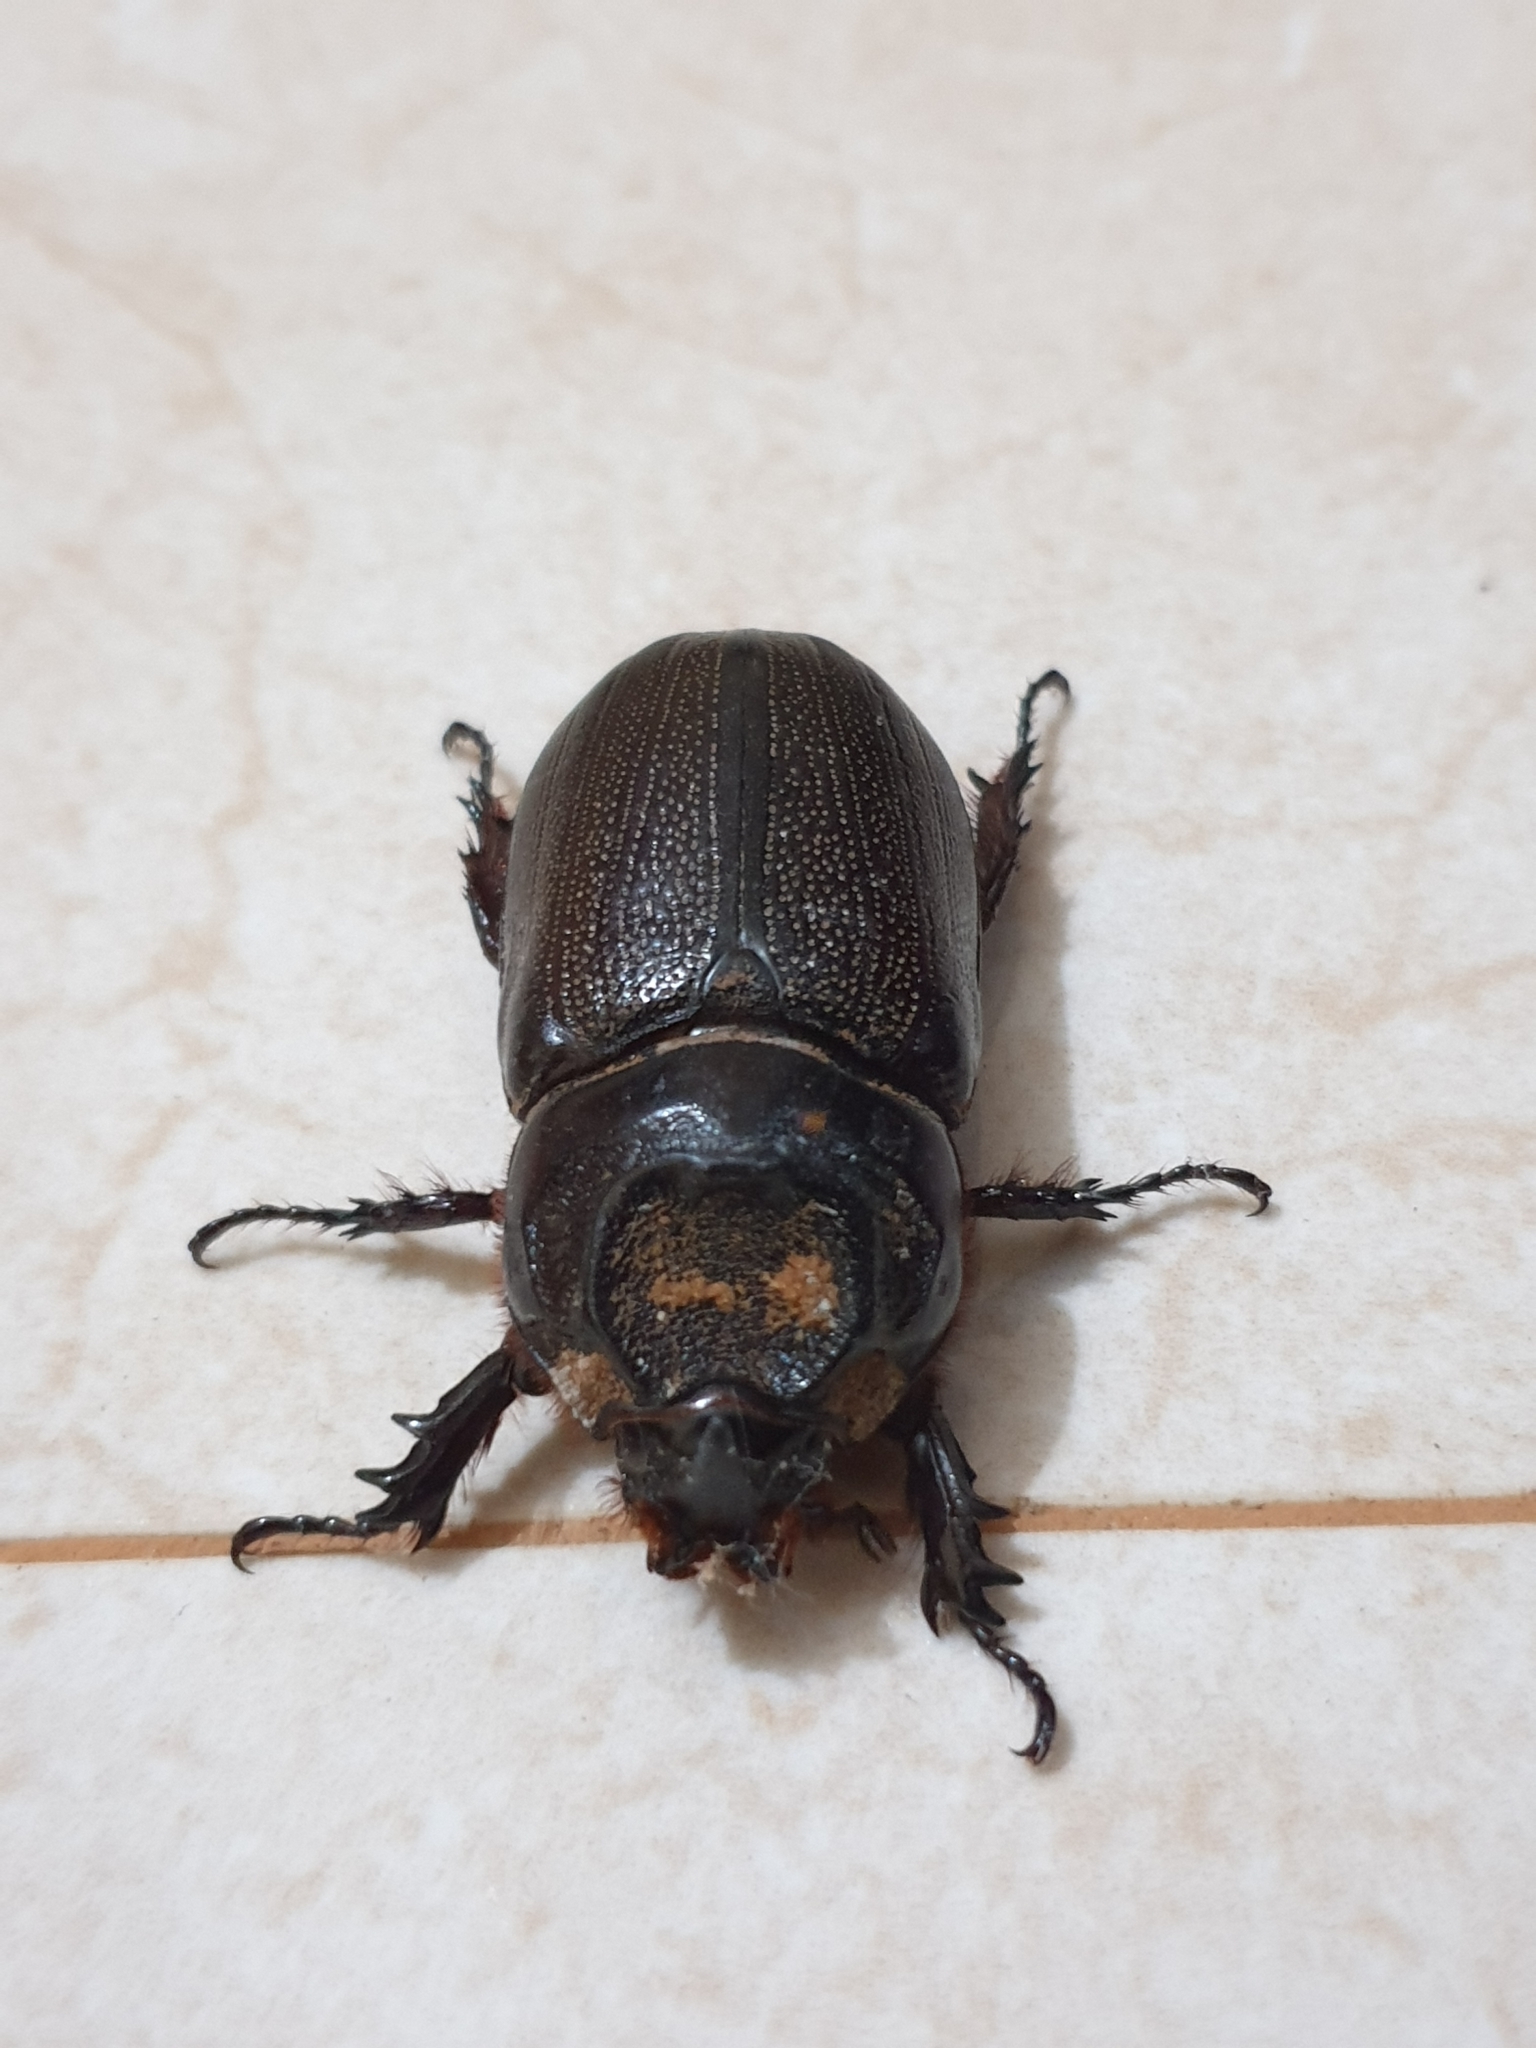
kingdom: Animalia
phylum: Arthropoda
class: Insecta
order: Coleoptera
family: Scarabaeidae
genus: Oryctes
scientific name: Oryctes rhinoceros
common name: Coconut rhinoceros beetle
